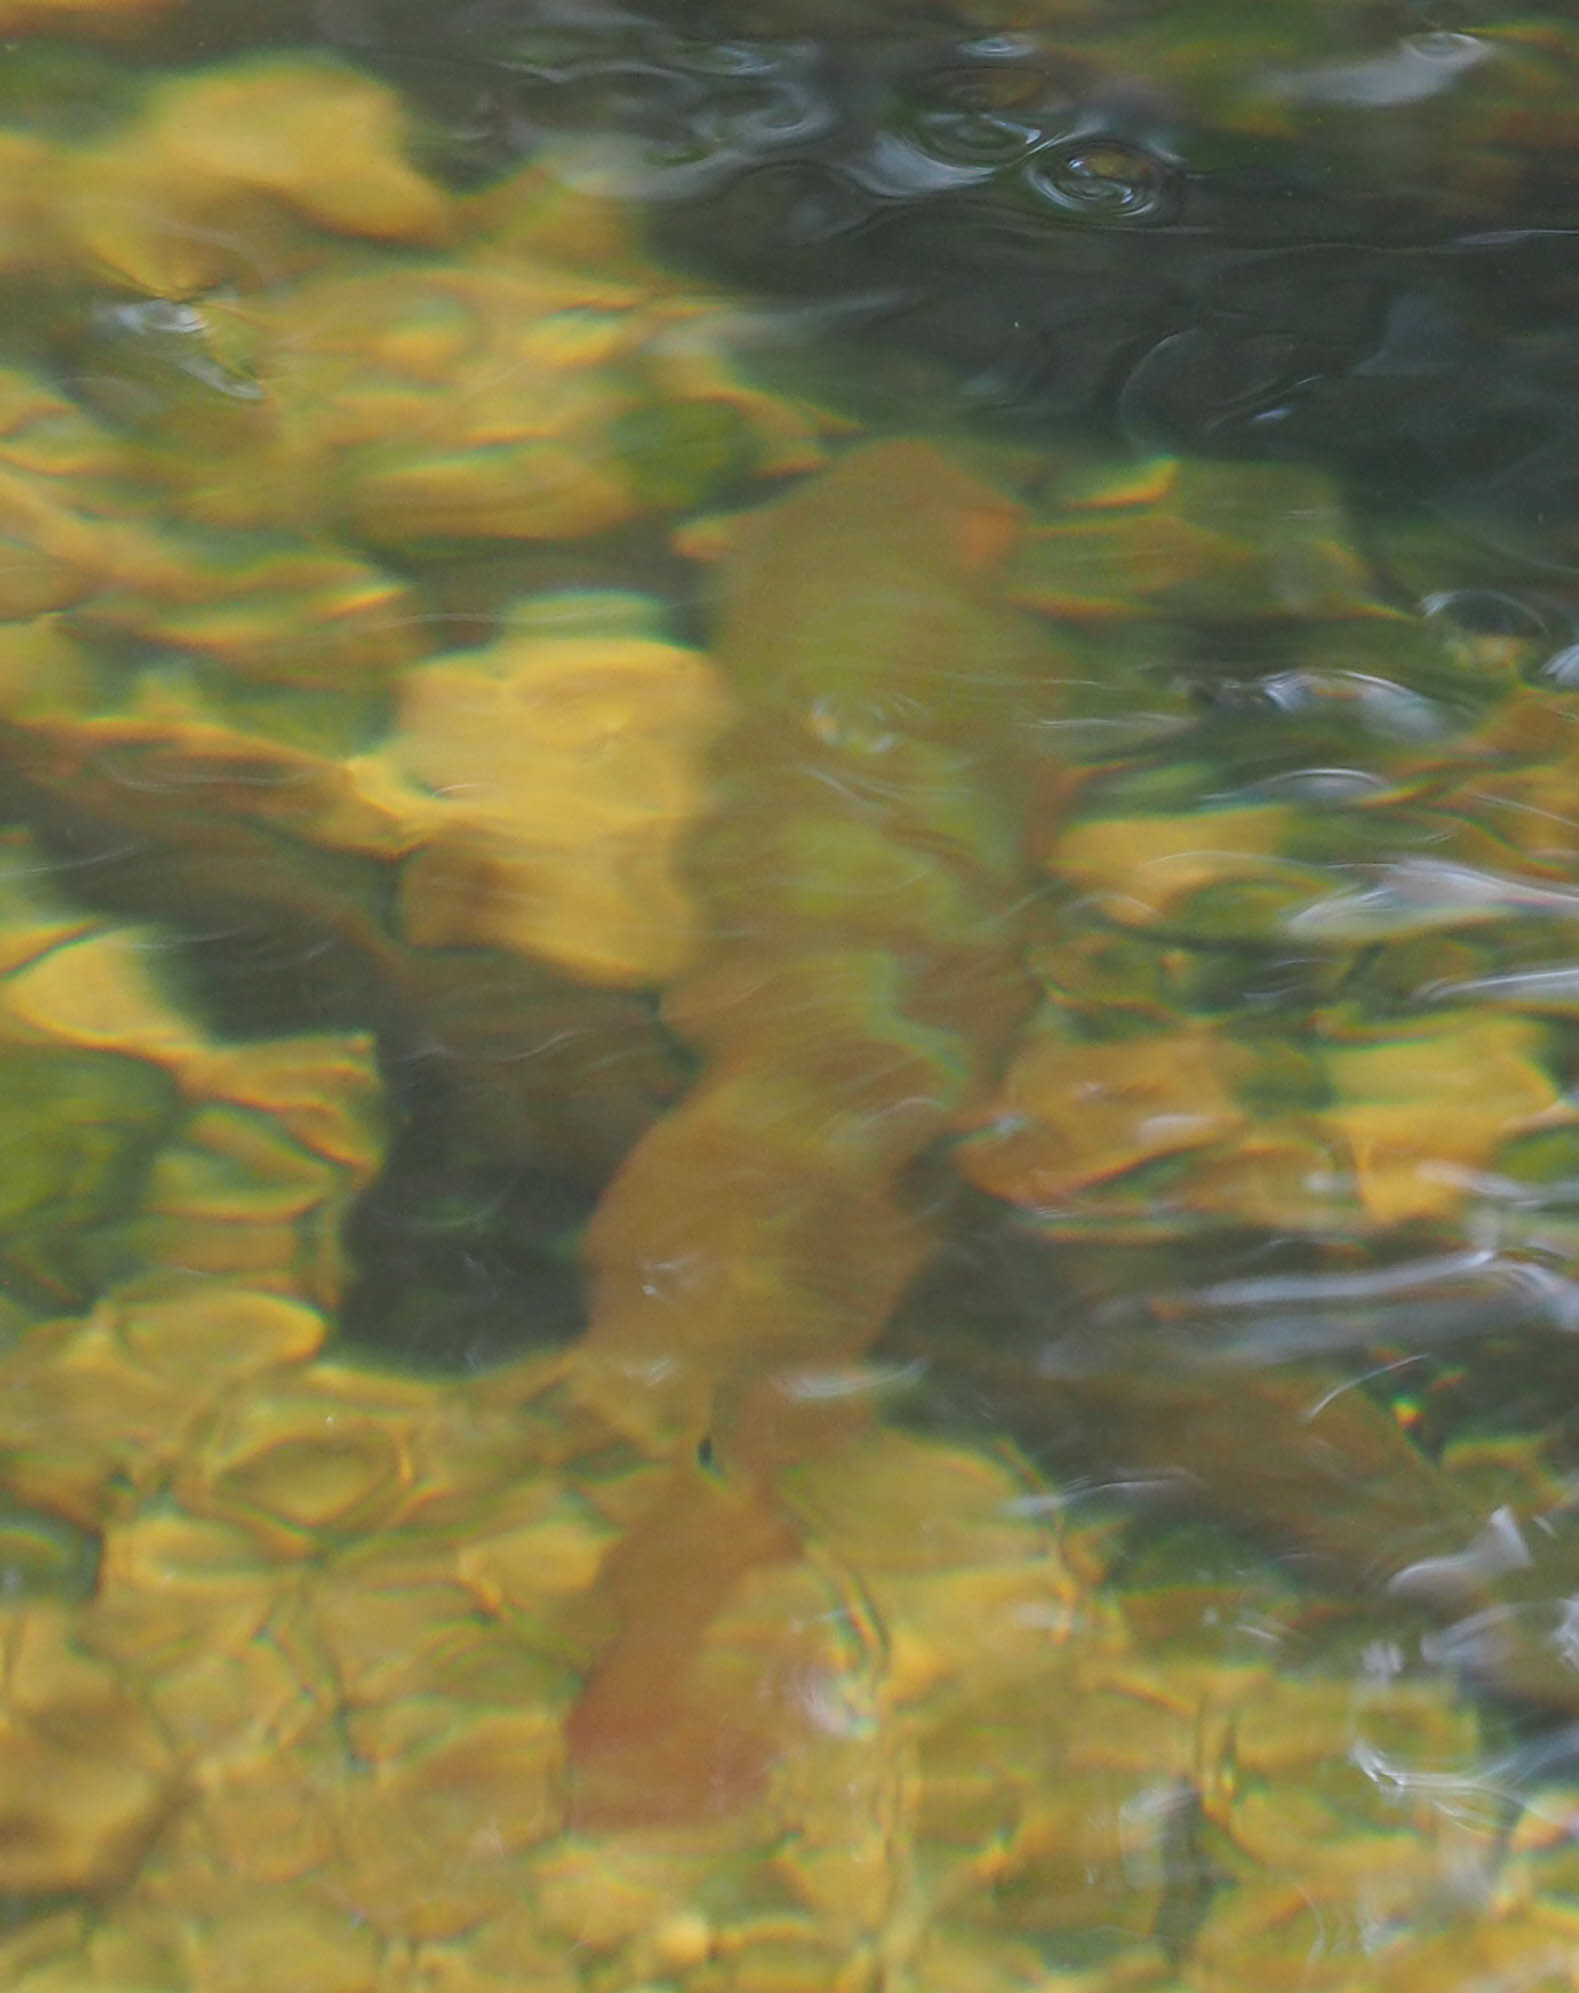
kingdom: Animalia
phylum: Chordata
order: Perciformes
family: Cichlidae
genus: Mayaheros
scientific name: Mayaheros urophthalmus
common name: Mayan cichlid
